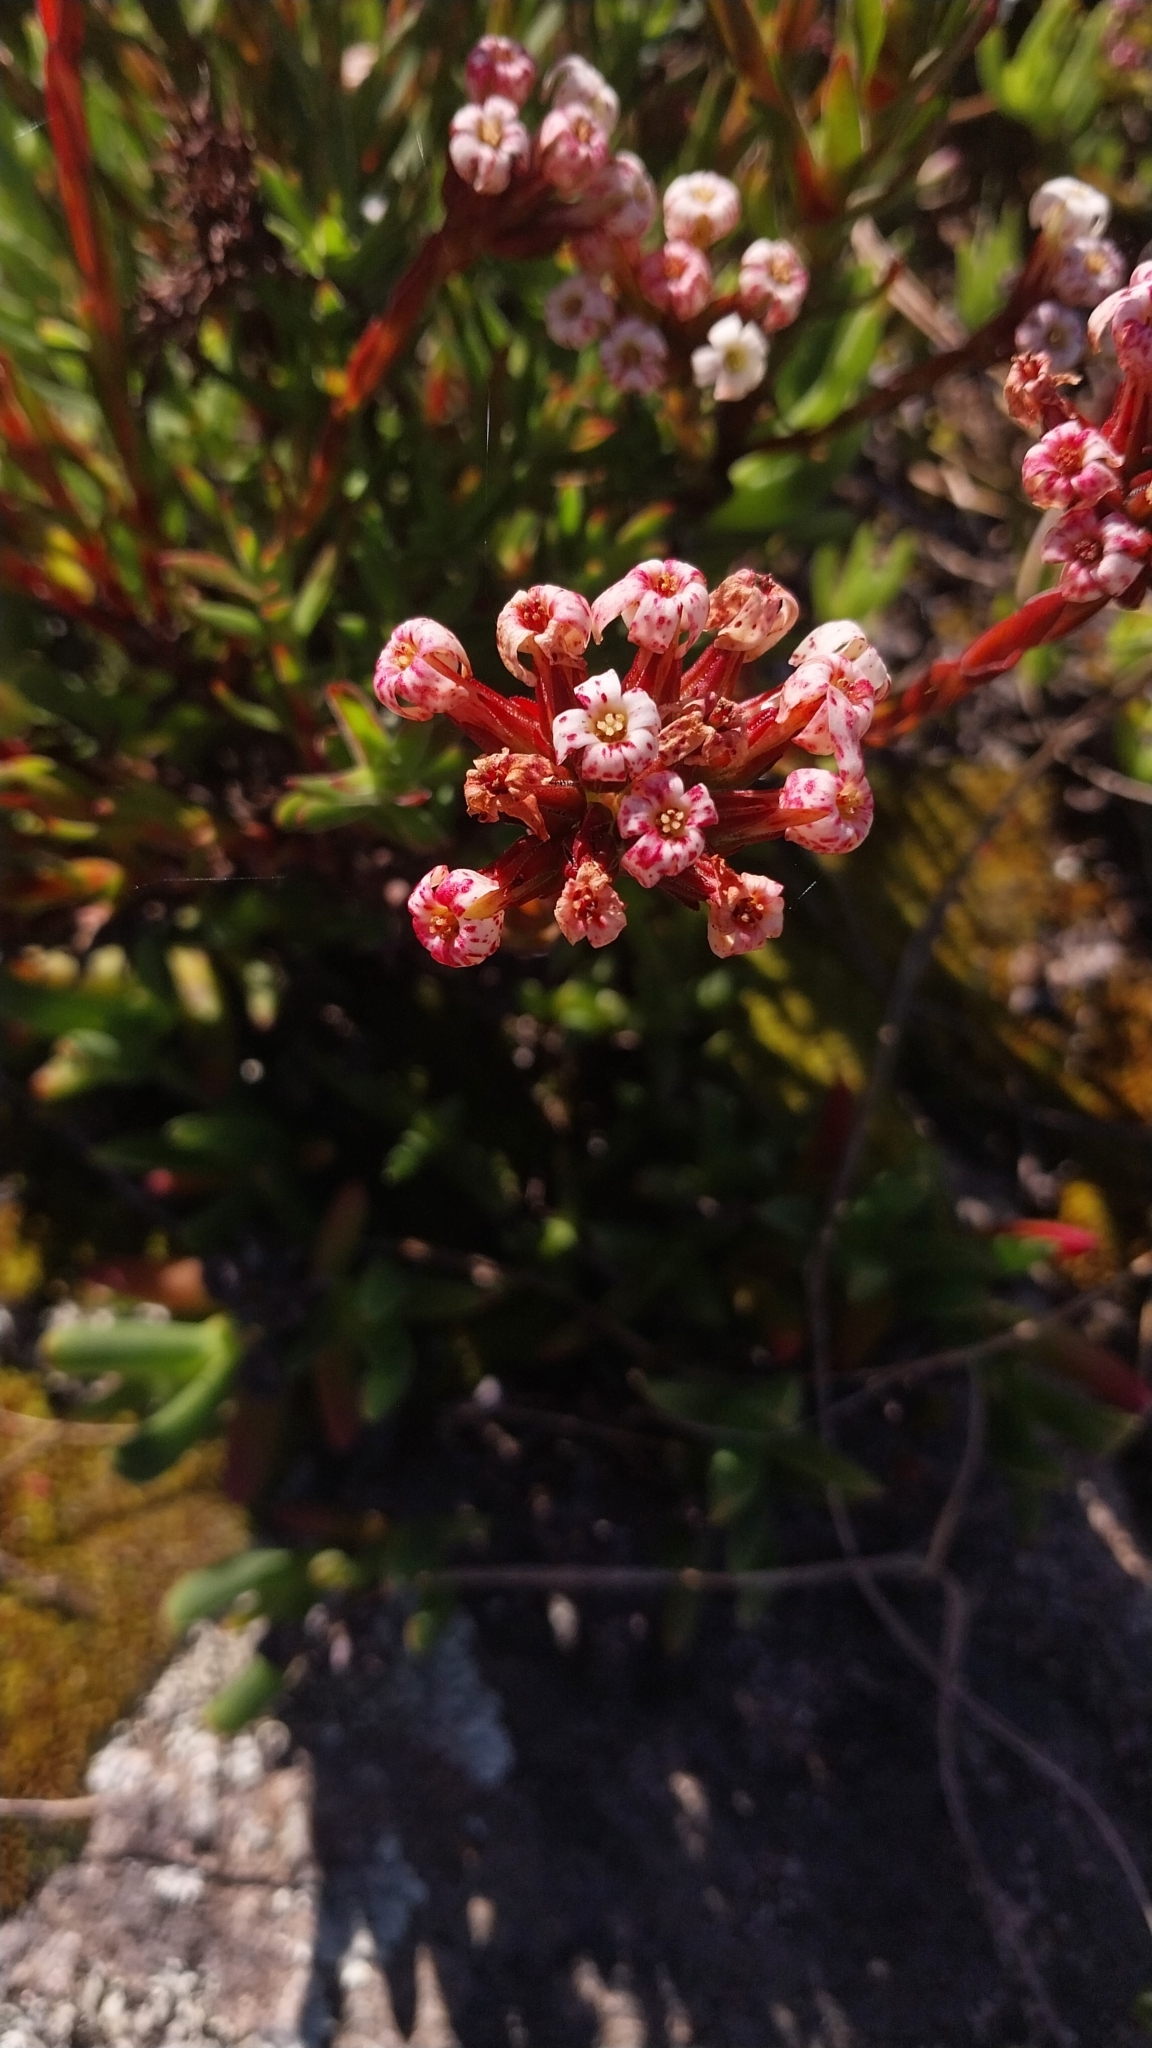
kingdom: Plantae
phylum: Tracheophyta
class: Magnoliopsida
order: Saxifragales
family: Crassulaceae
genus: Crassula
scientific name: Crassula fascicularis
